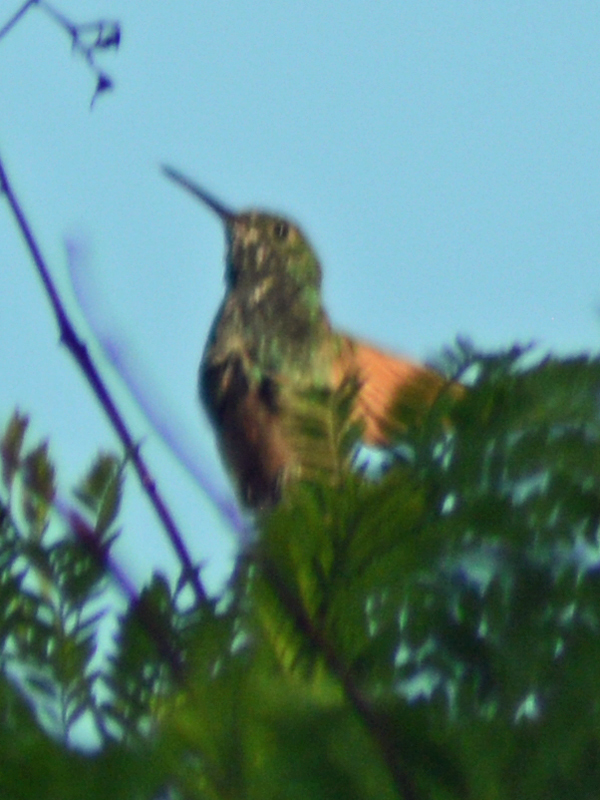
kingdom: Animalia
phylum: Chordata
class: Aves
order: Apodiformes
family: Trochilidae
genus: Saucerottia
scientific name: Saucerottia beryllina
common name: Berylline hummingbird
